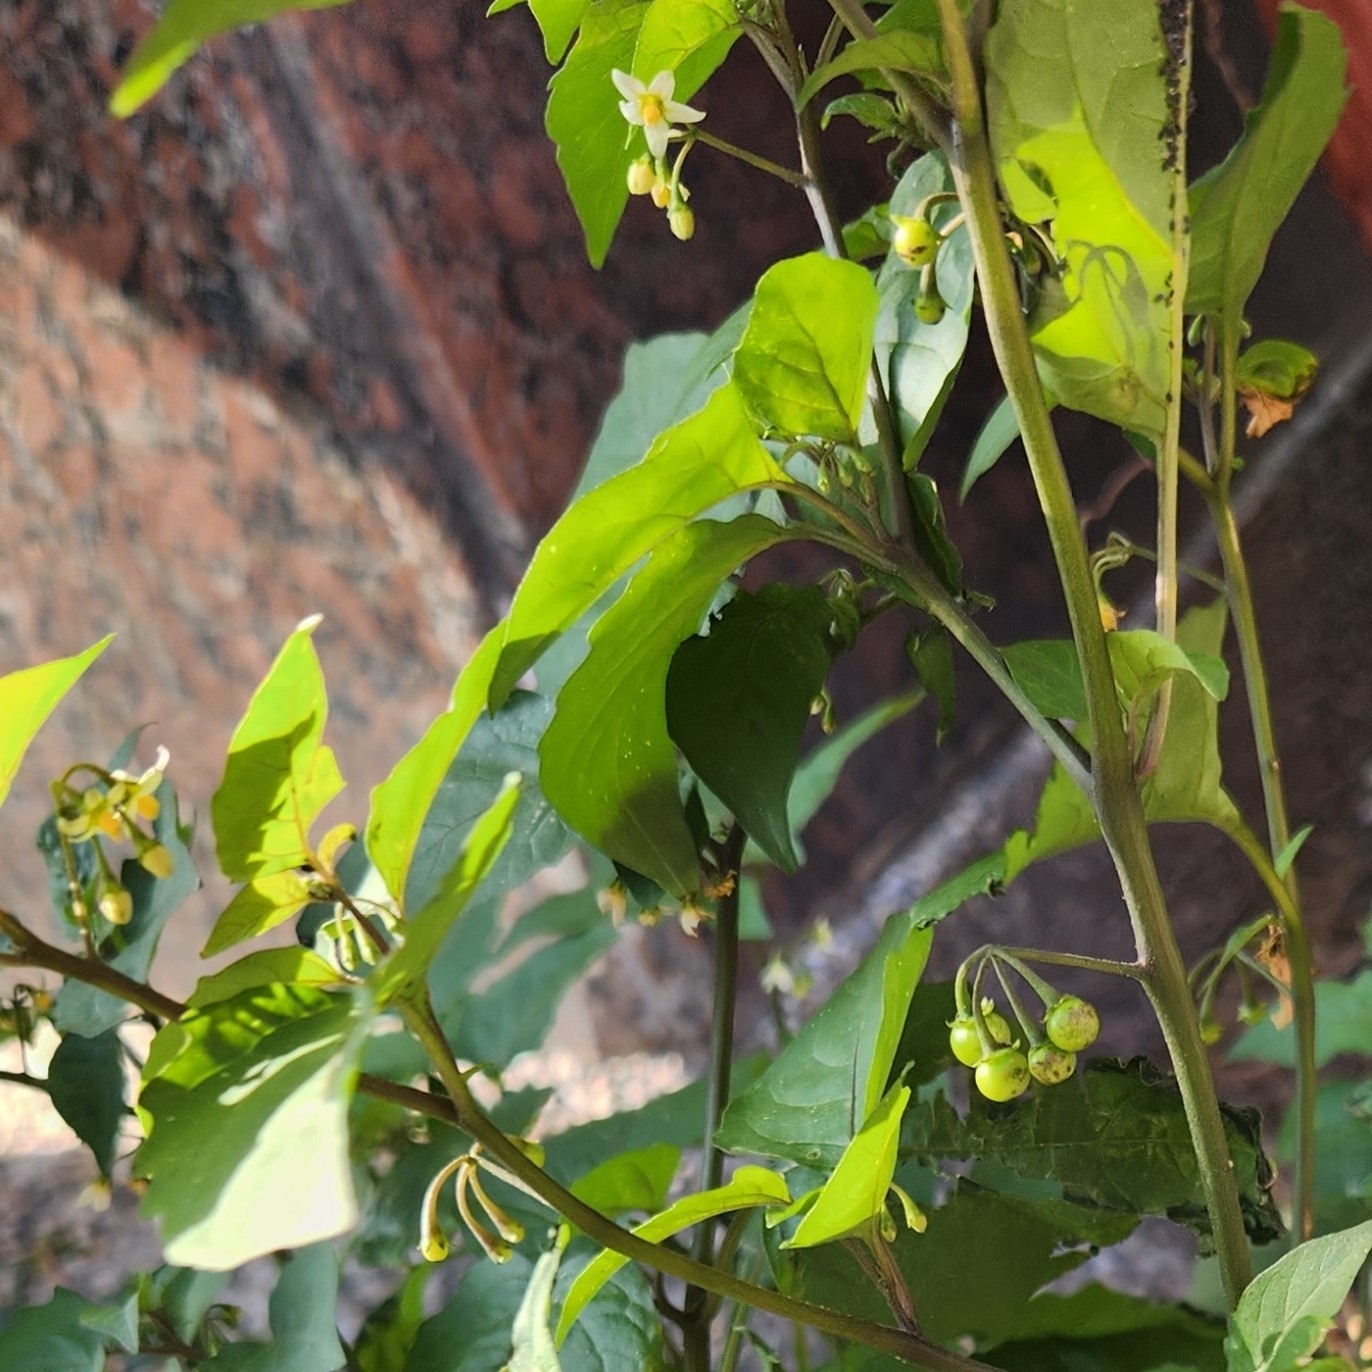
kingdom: Plantae
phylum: Tracheophyta
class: Magnoliopsida
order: Solanales
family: Solanaceae
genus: Solanum
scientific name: Solanum americanum
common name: American black nightshade
